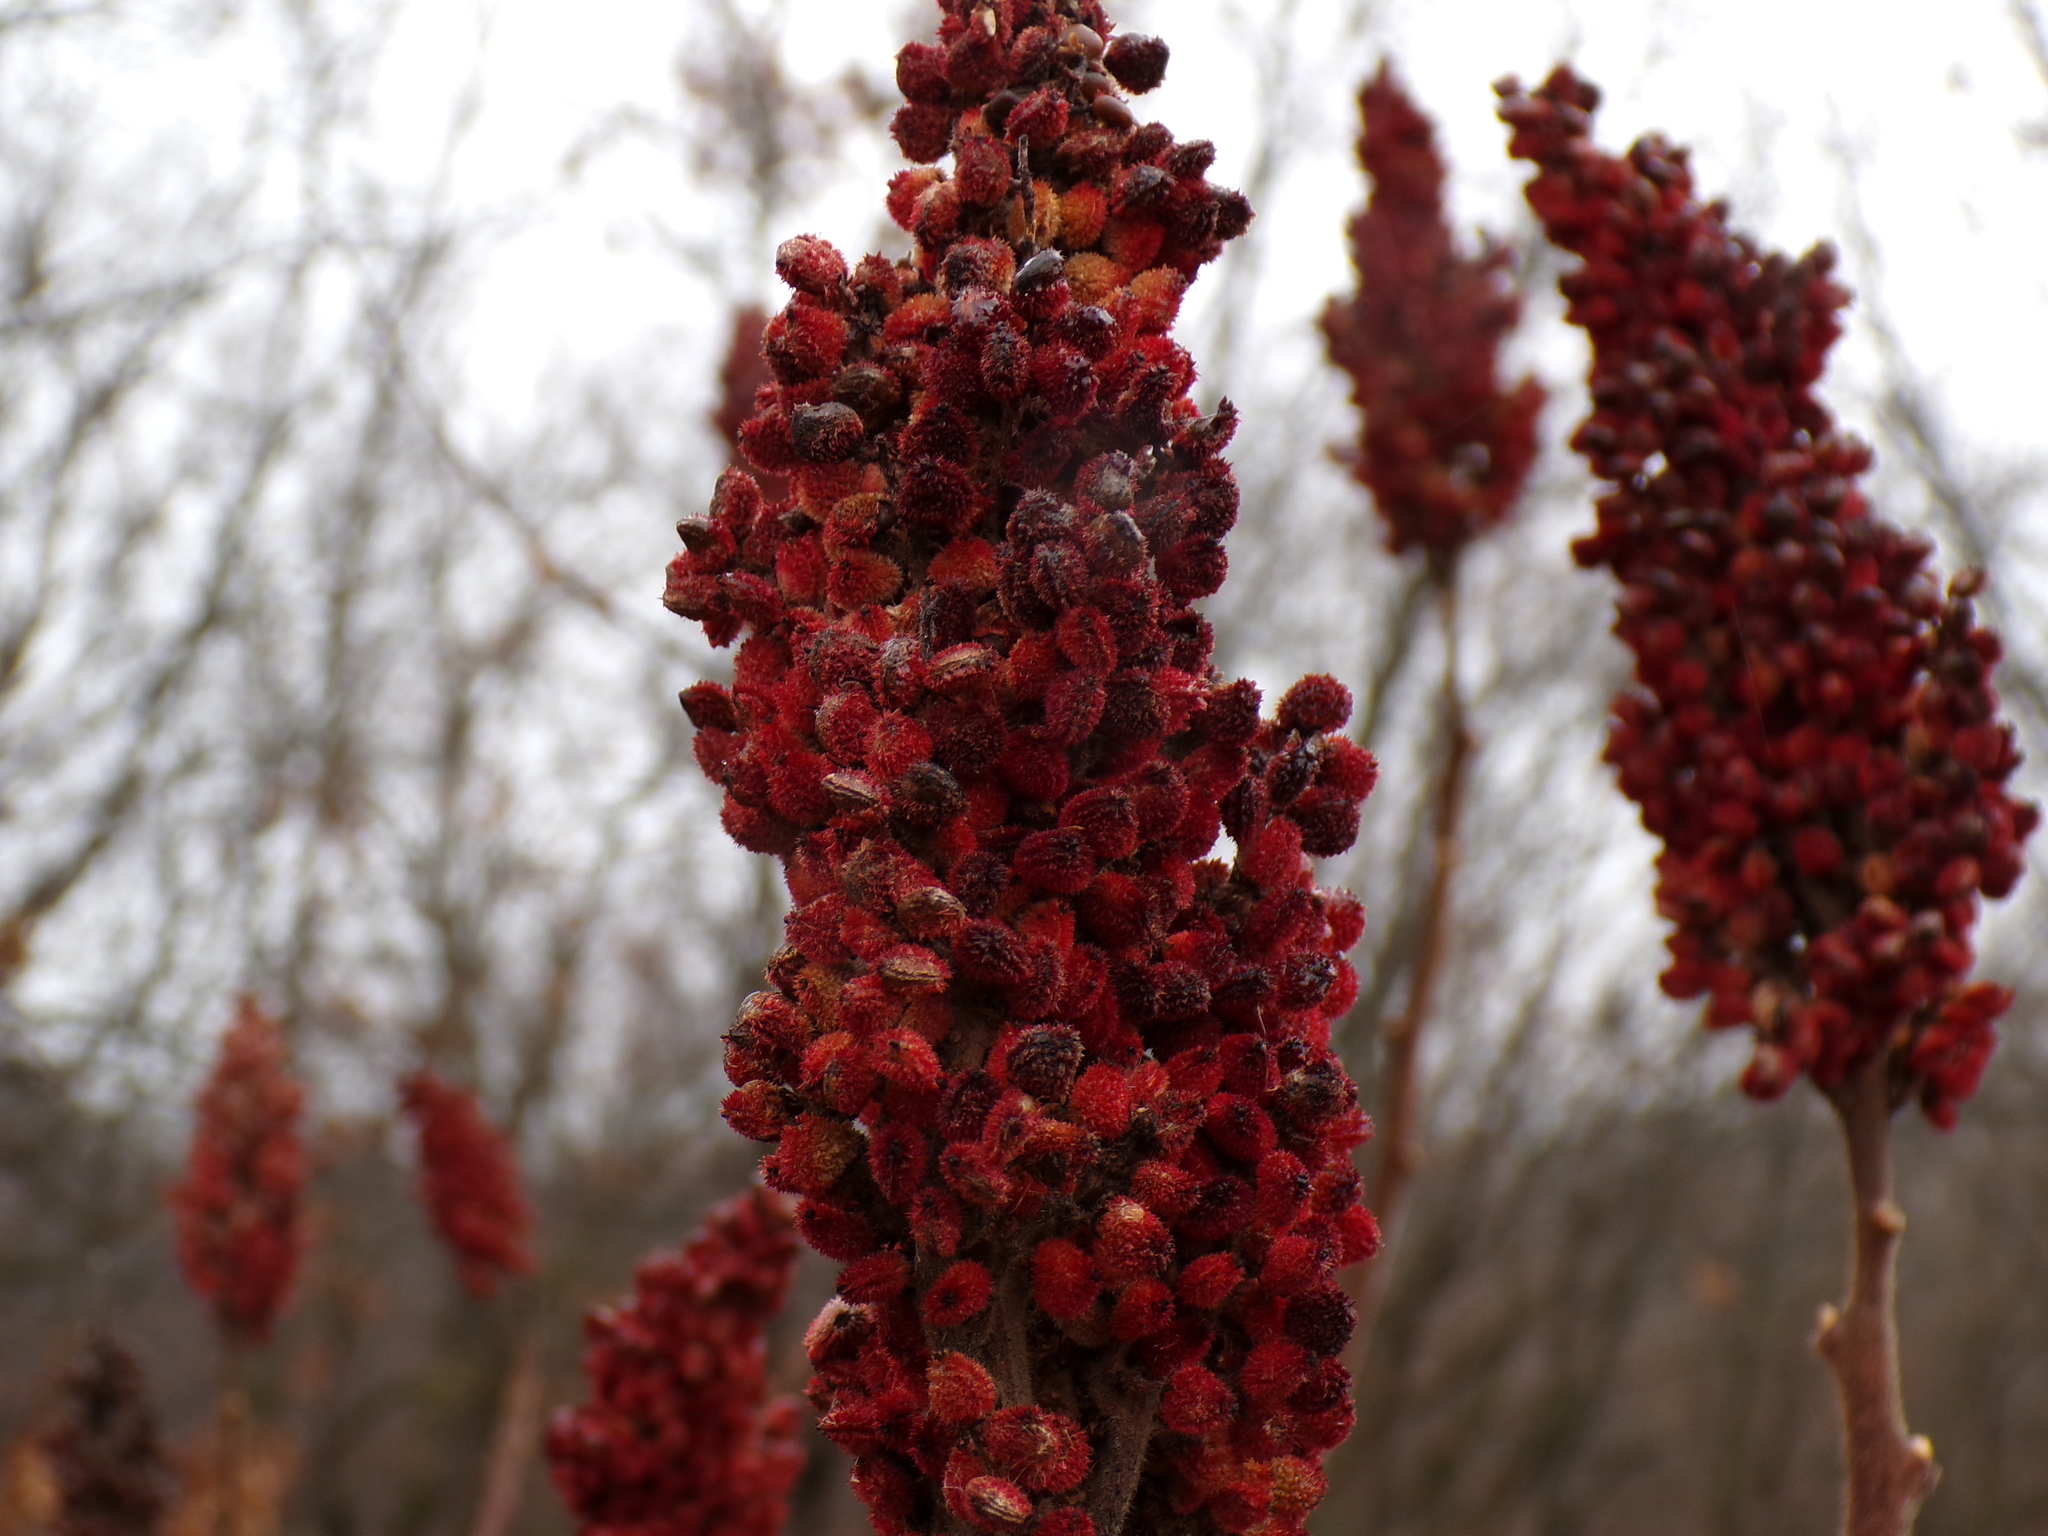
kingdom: Plantae
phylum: Tracheophyta
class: Magnoliopsida
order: Sapindales
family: Anacardiaceae
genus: Rhus
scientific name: Rhus typhina
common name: Staghorn sumac
